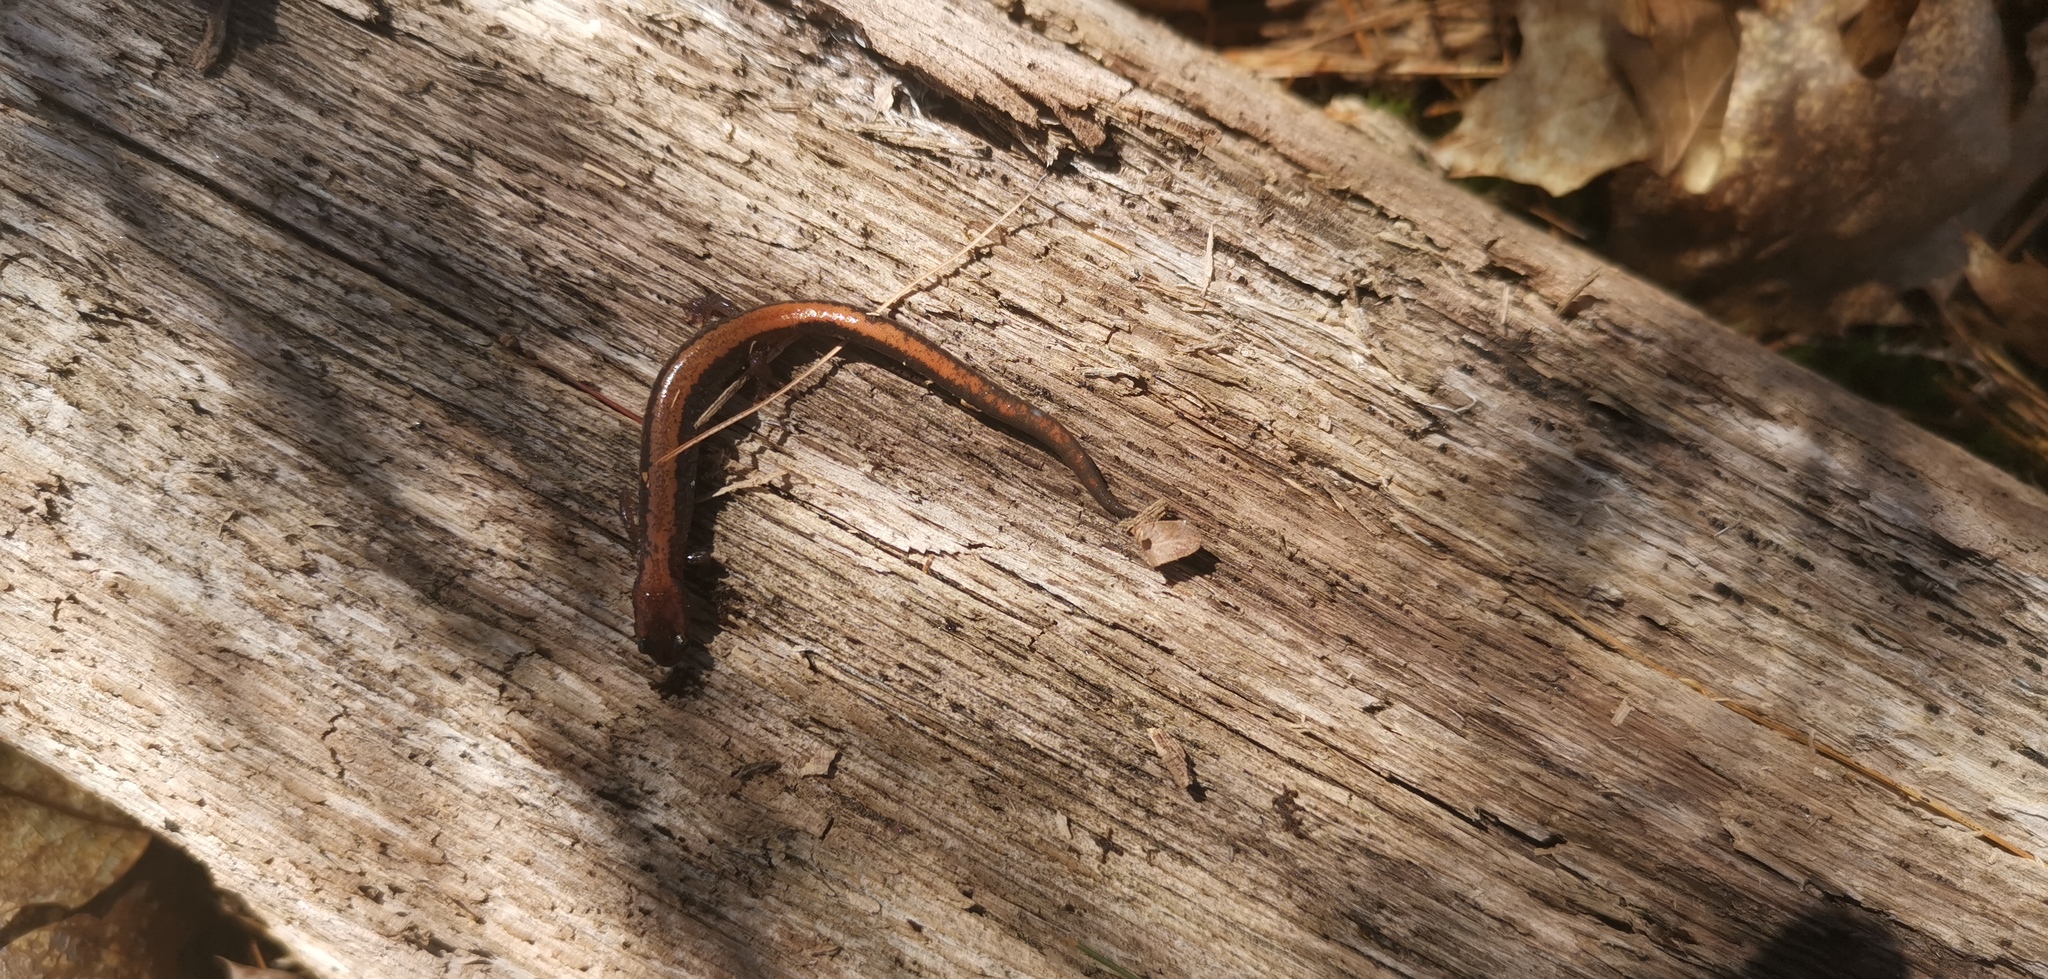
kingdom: Animalia
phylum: Chordata
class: Amphibia
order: Caudata
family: Plethodontidae
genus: Plethodon
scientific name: Plethodon cinereus
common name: Redback salamander
